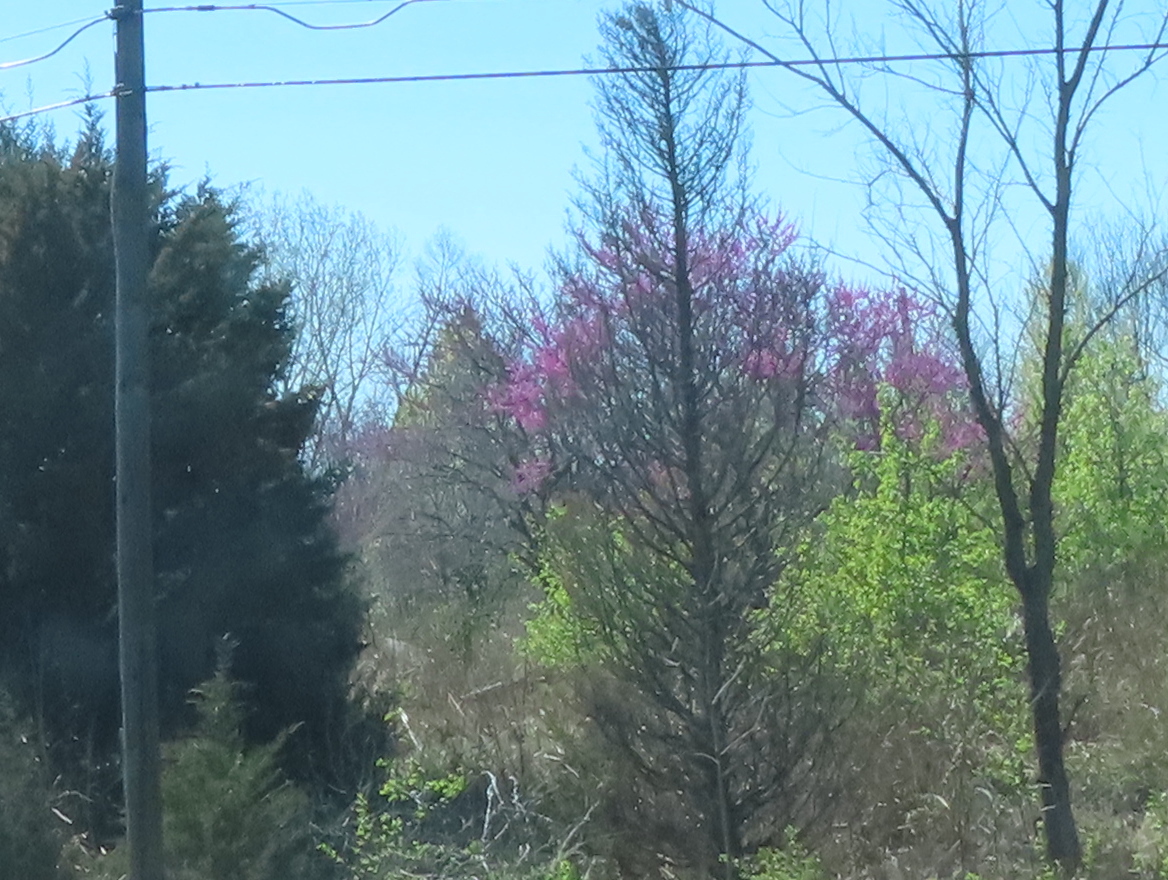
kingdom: Plantae
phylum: Tracheophyta
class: Magnoliopsida
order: Fabales
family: Fabaceae
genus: Cercis
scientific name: Cercis canadensis
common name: Eastern redbud
